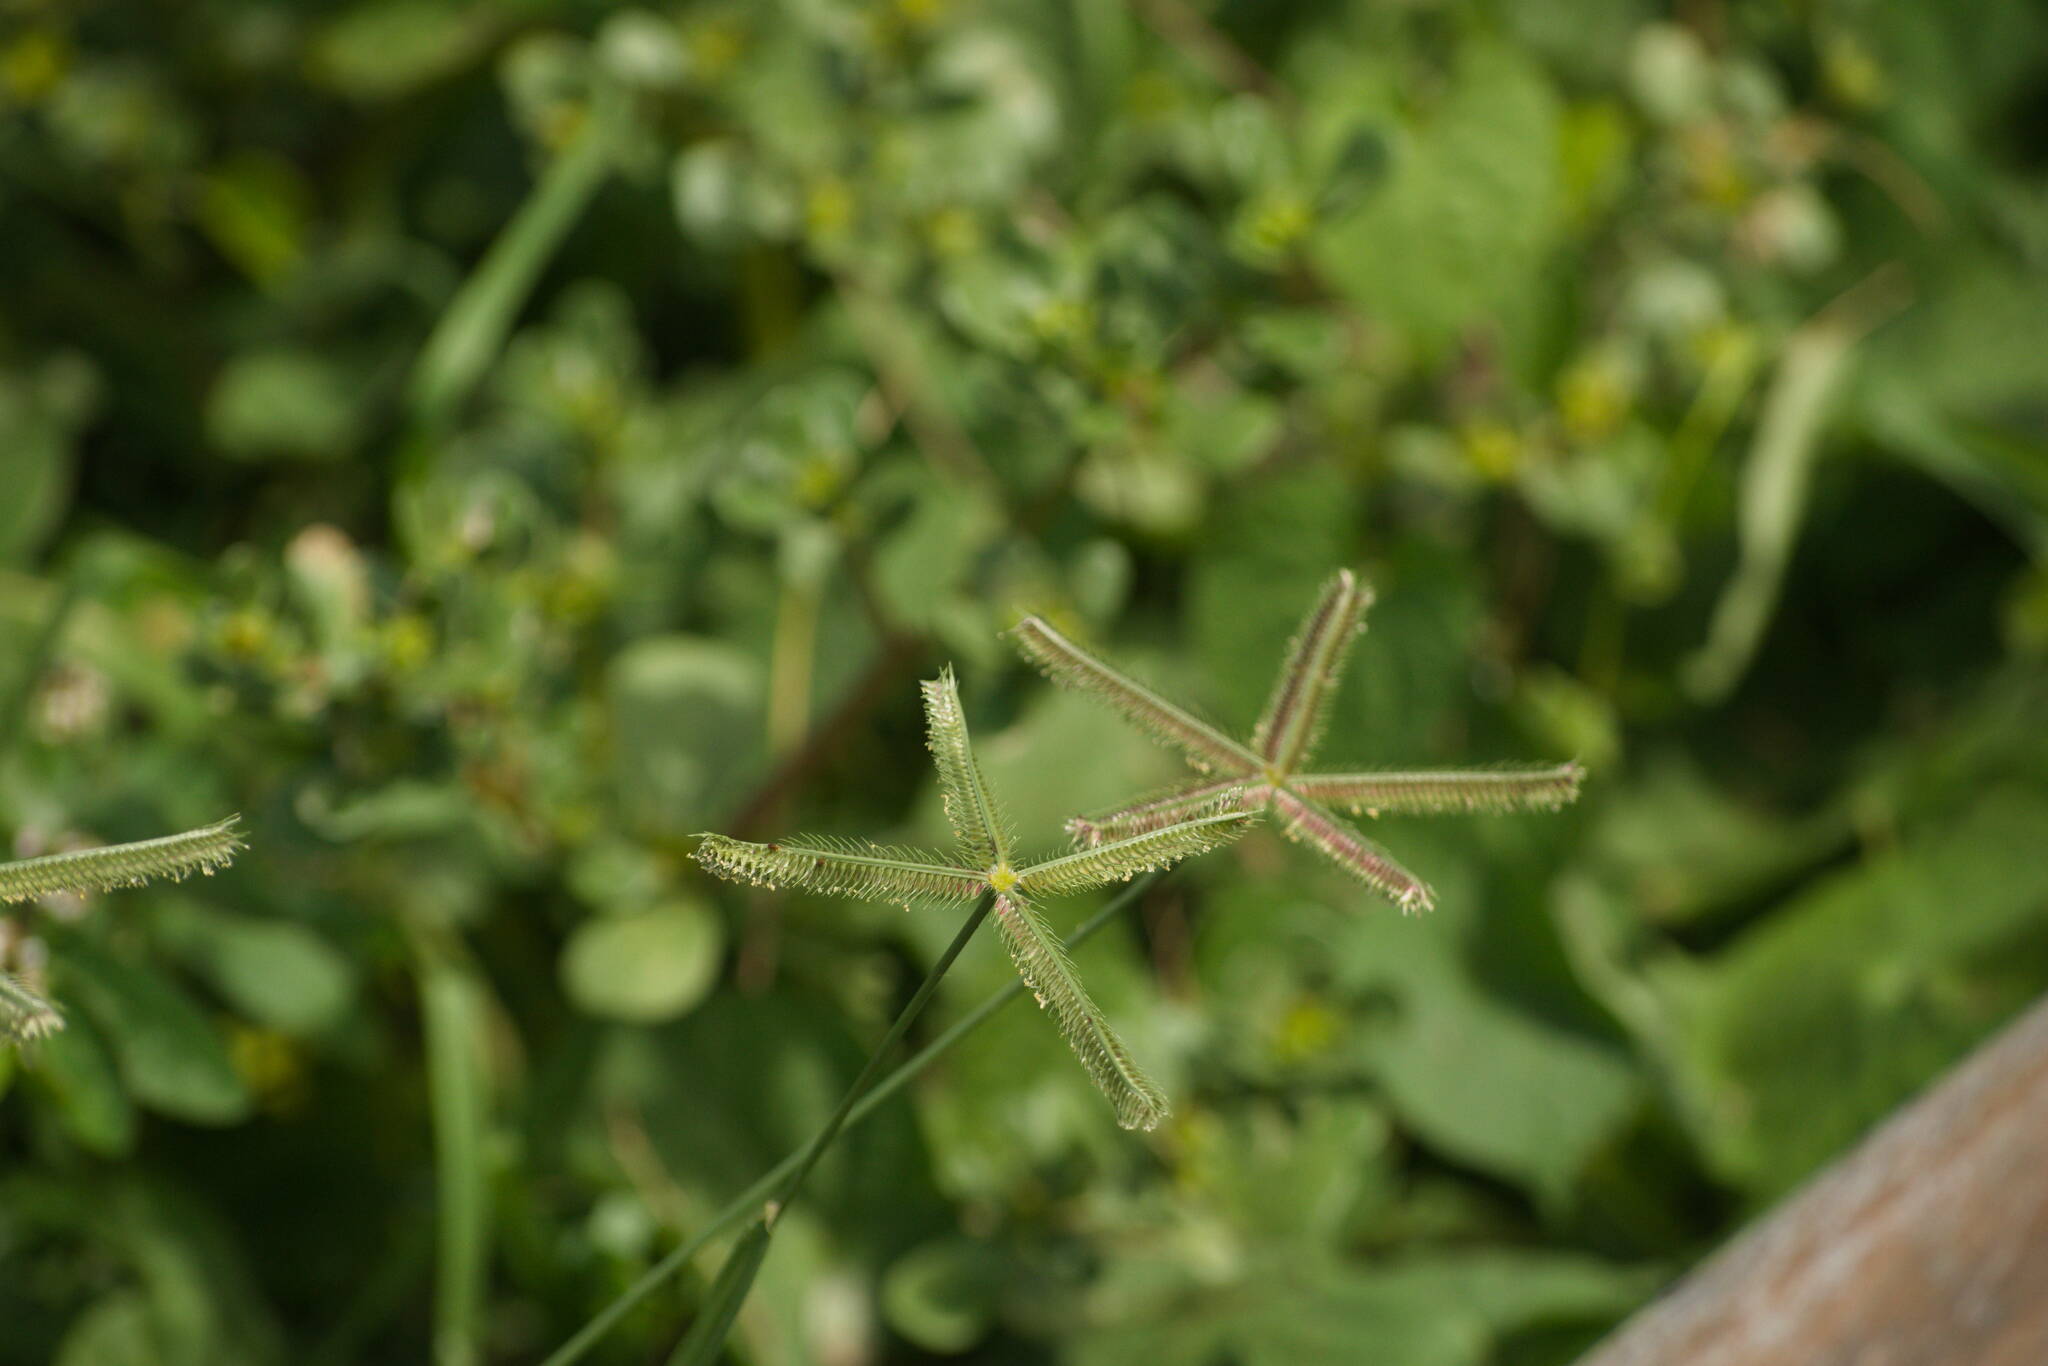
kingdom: Plantae
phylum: Tracheophyta
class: Liliopsida
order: Poales
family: Poaceae
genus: Dactyloctenium
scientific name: Dactyloctenium aegyptium
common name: Egyptian grass
